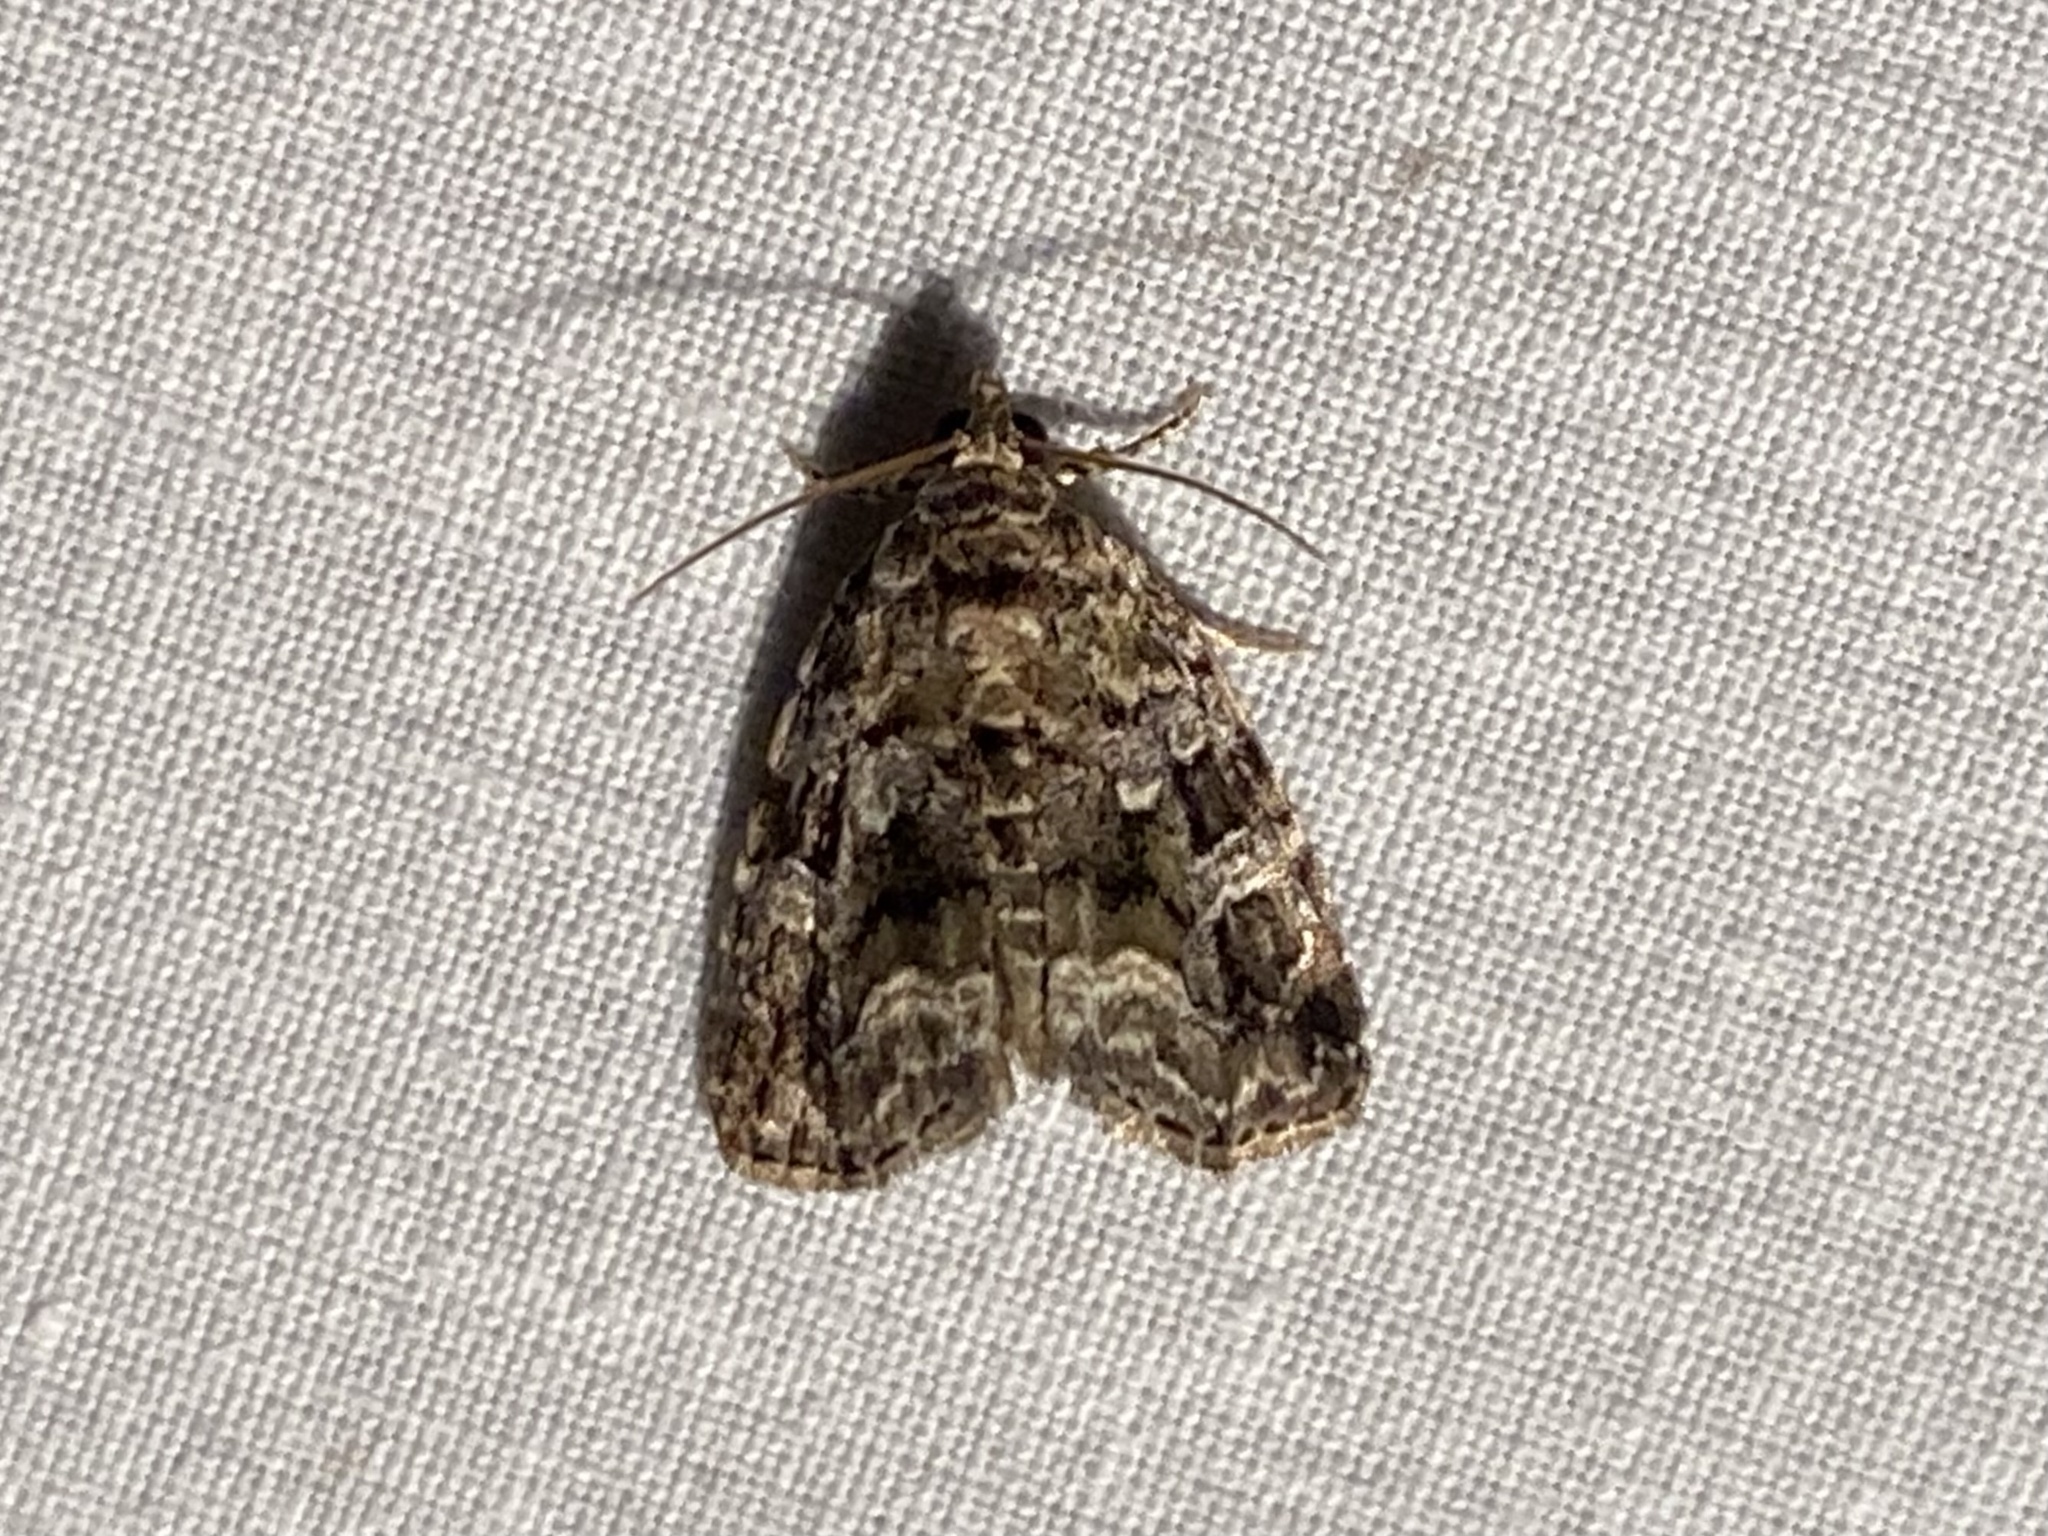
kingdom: Animalia
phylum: Arthropoda
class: Insecta
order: Lepidoptera
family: Noctuidae
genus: Protodeltote
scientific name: Protodeltote muscosula
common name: Large mossy glyph
